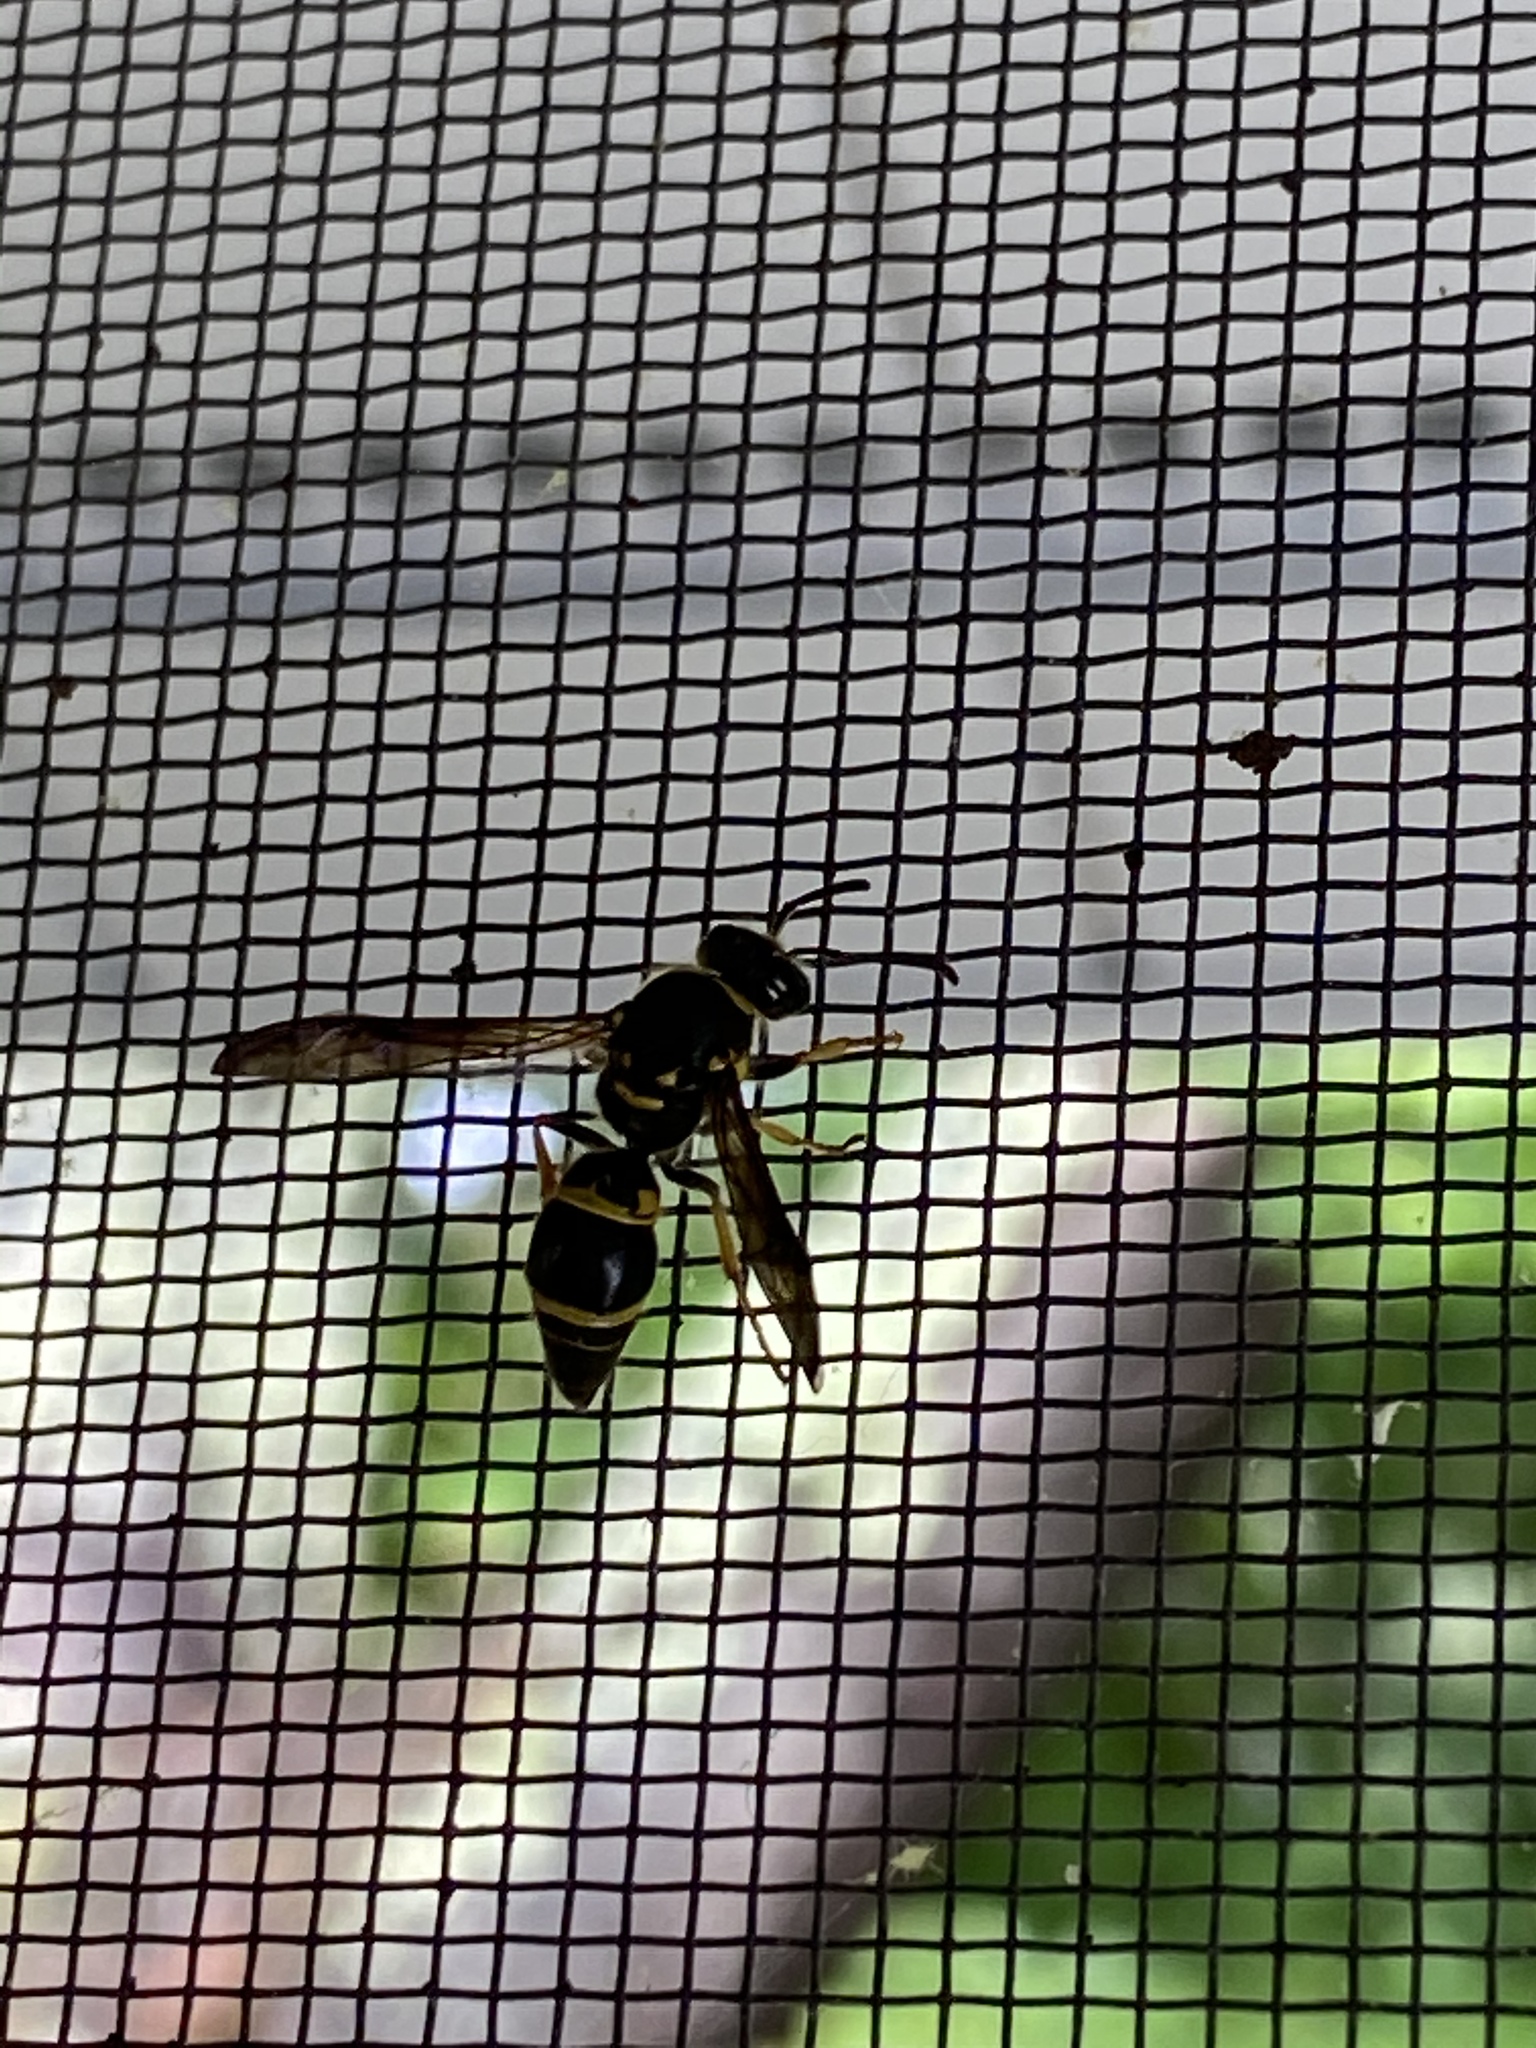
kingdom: Animalia
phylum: Arthropoda
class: Insecta
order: Hymenoptera
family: Vespidae
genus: Ancistrocerus
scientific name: Ancistrocerus campestris
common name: Smiling mason wasp
